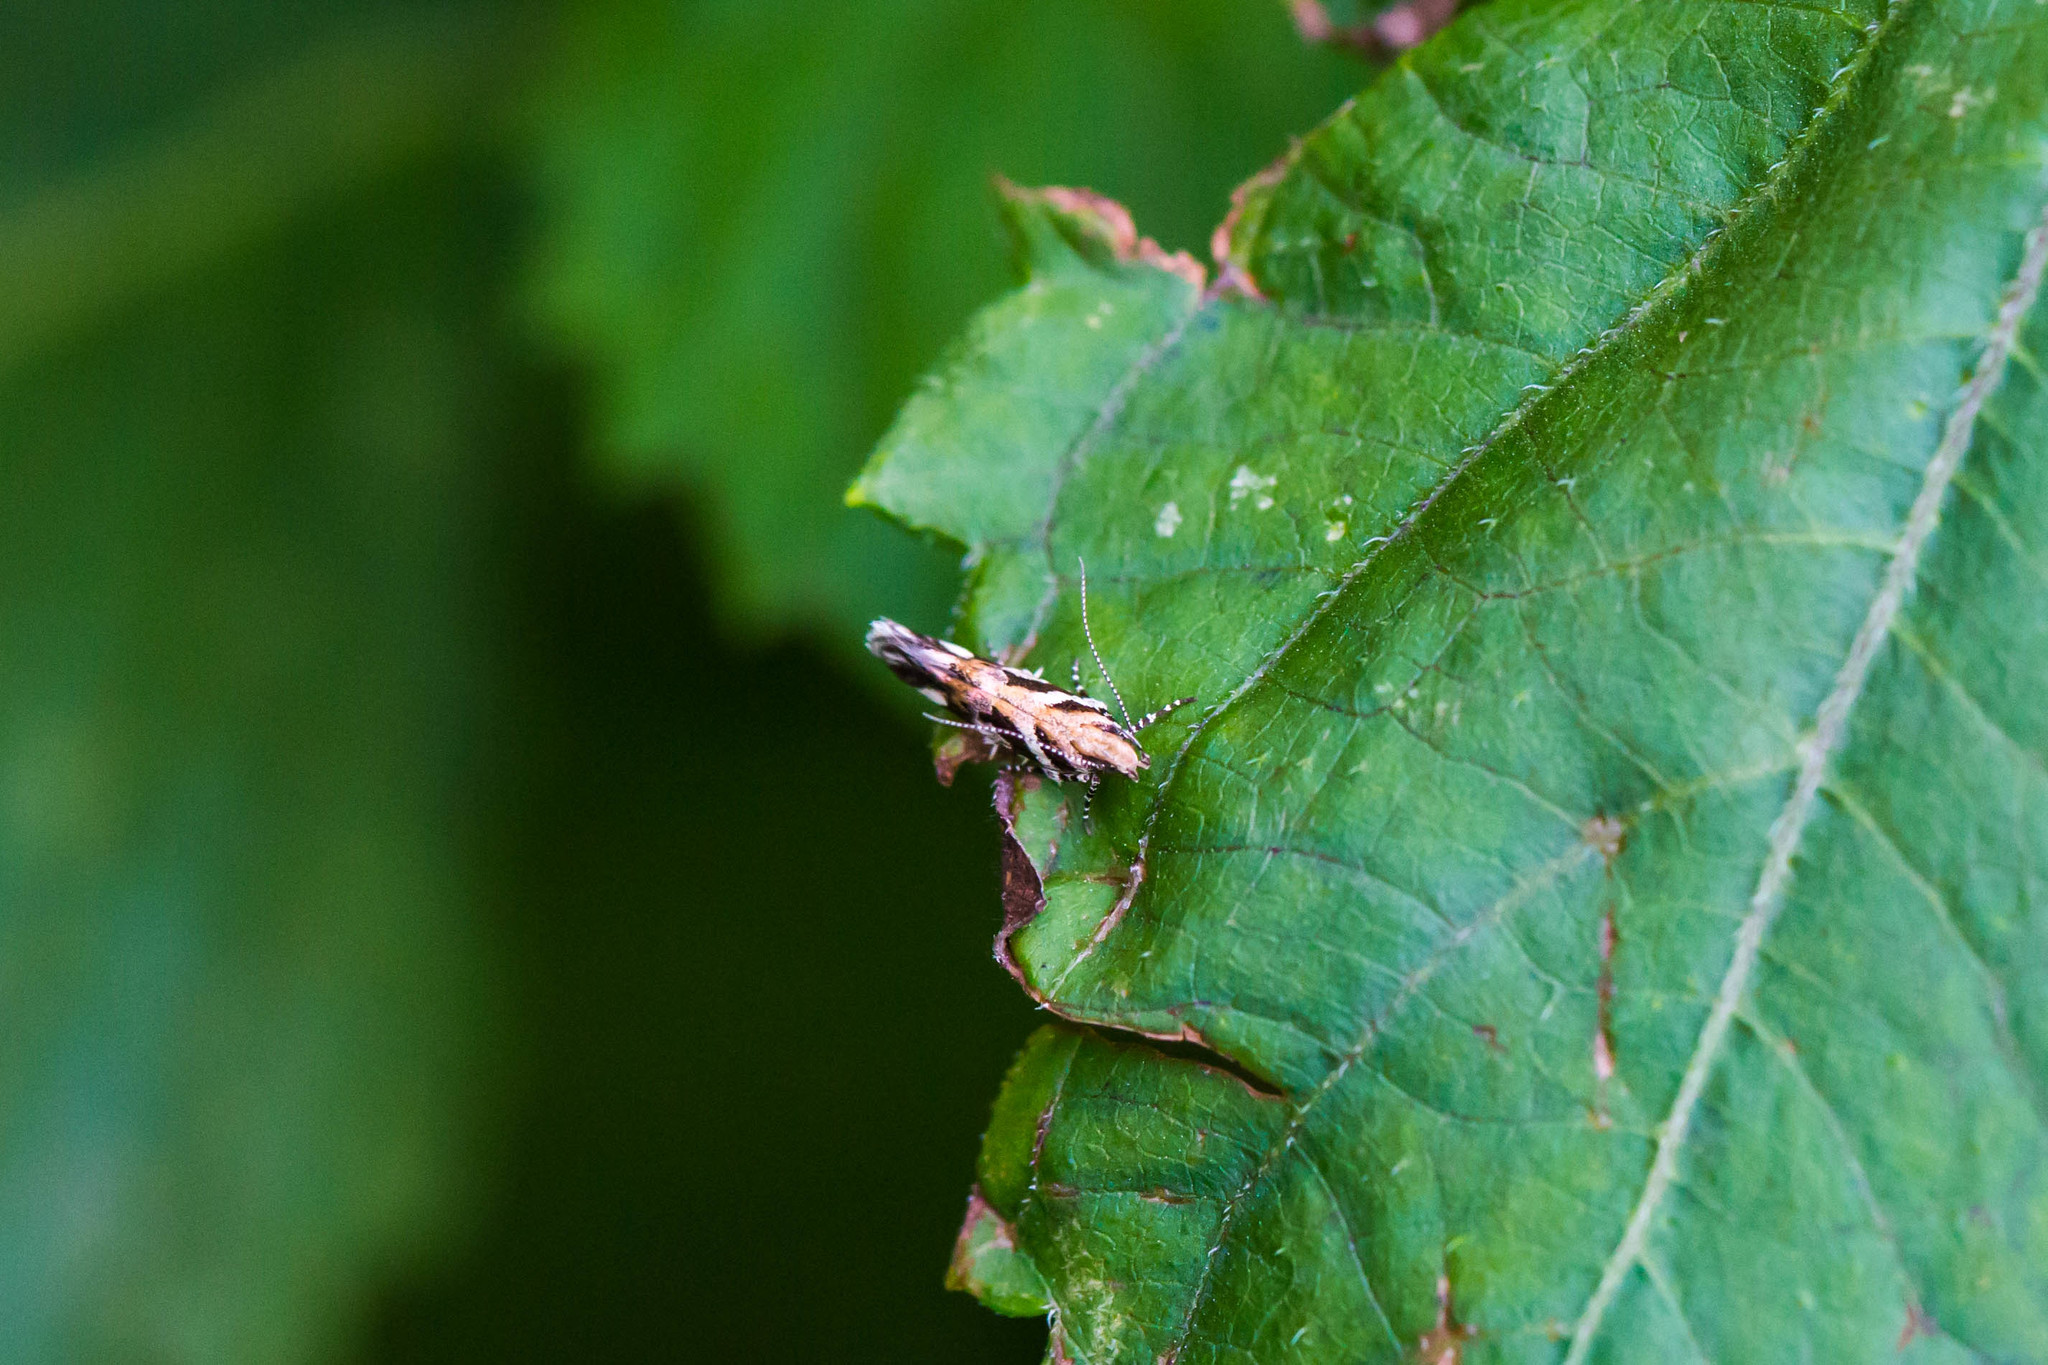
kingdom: Animalia
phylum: Arthropoda
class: Insecta
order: Lepidoptera
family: Gelechiidae
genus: Aristotelia
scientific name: Aristotelia roseosuffusella
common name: Pink-washed aristotelia moth
